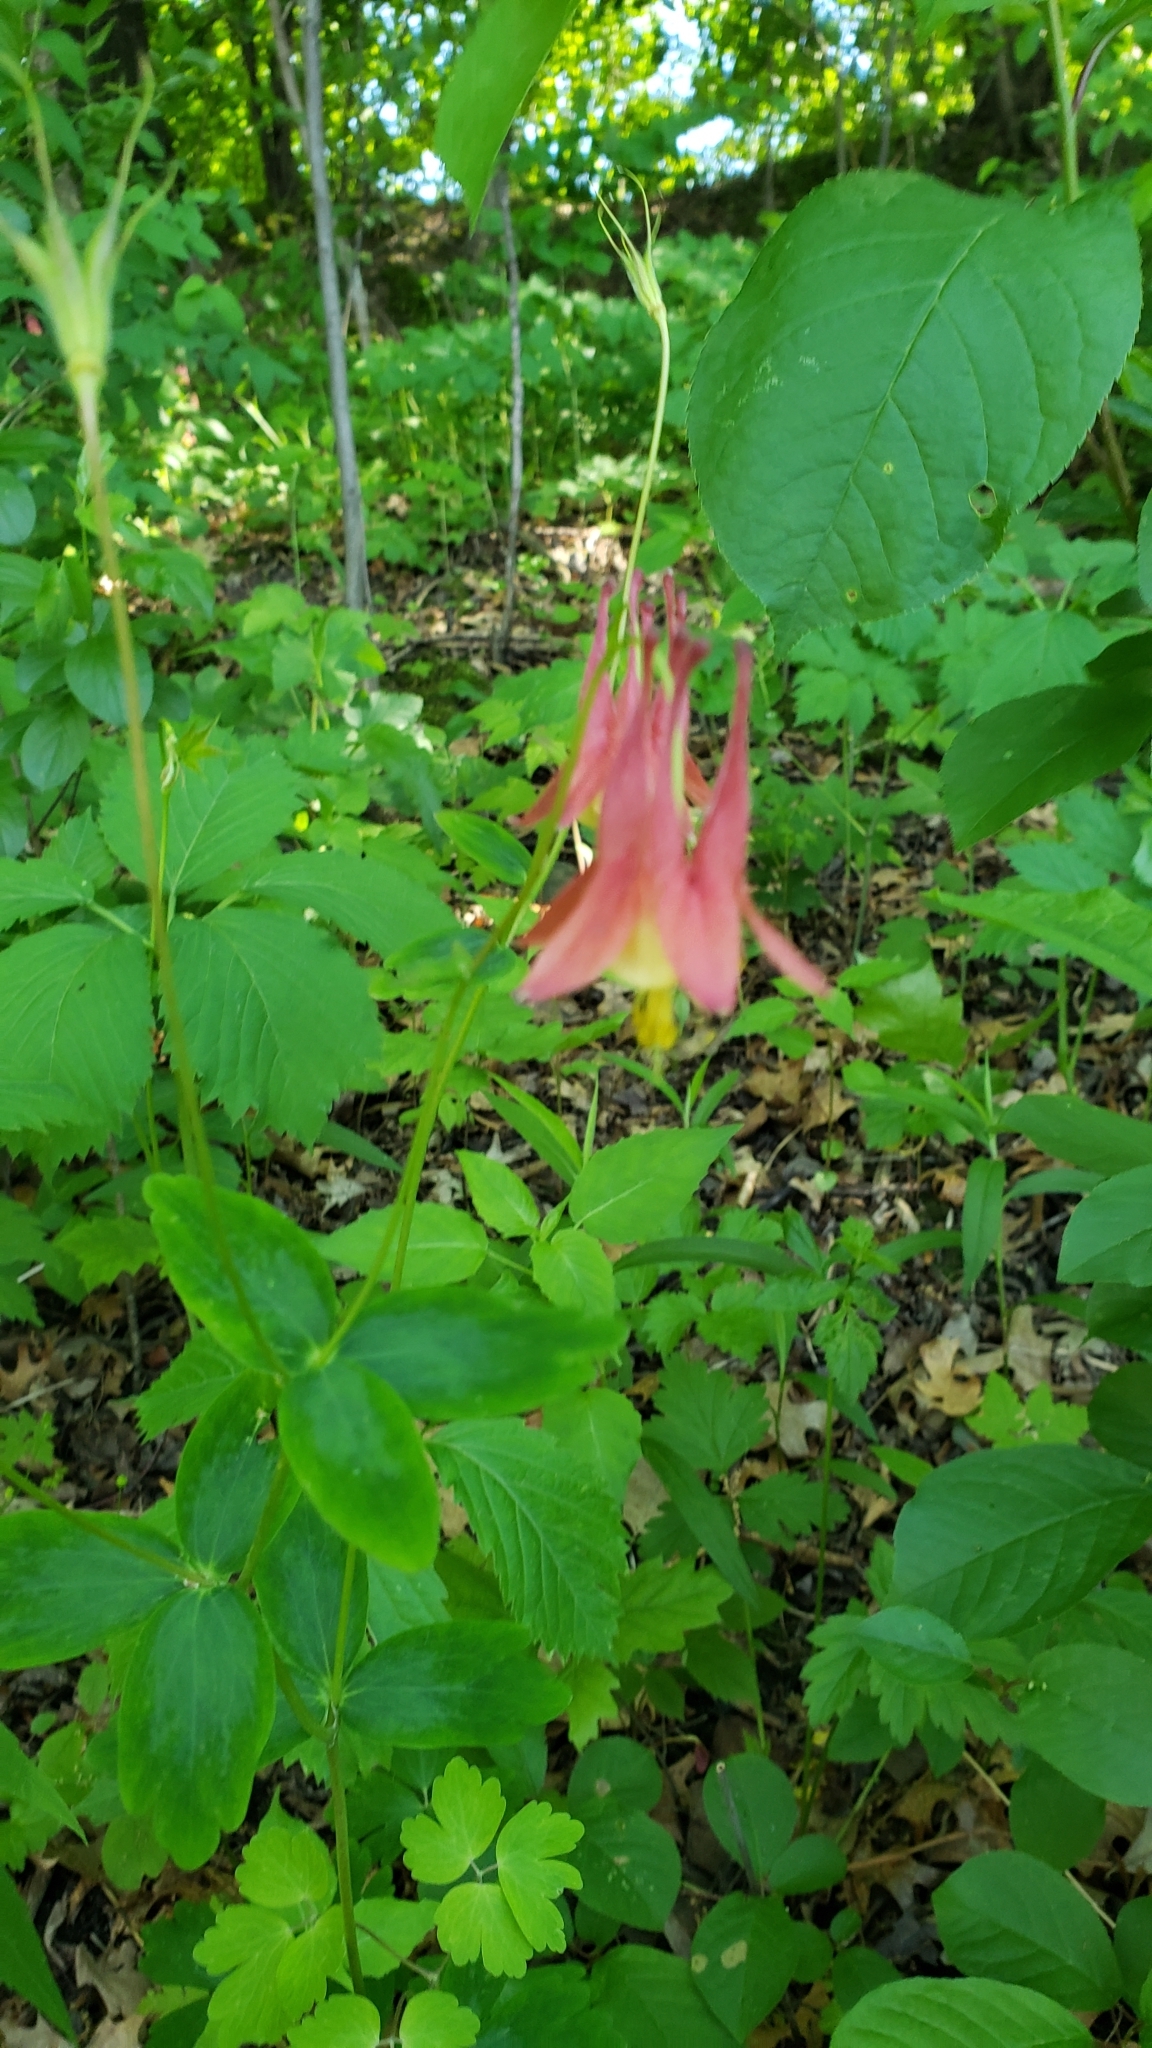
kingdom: Plantae
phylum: Tracheophyta
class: Magnoliopsida
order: Ranunculales
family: Ranunculaceae
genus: Aquilegia
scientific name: Aquilegia canadensis
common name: American columbine
